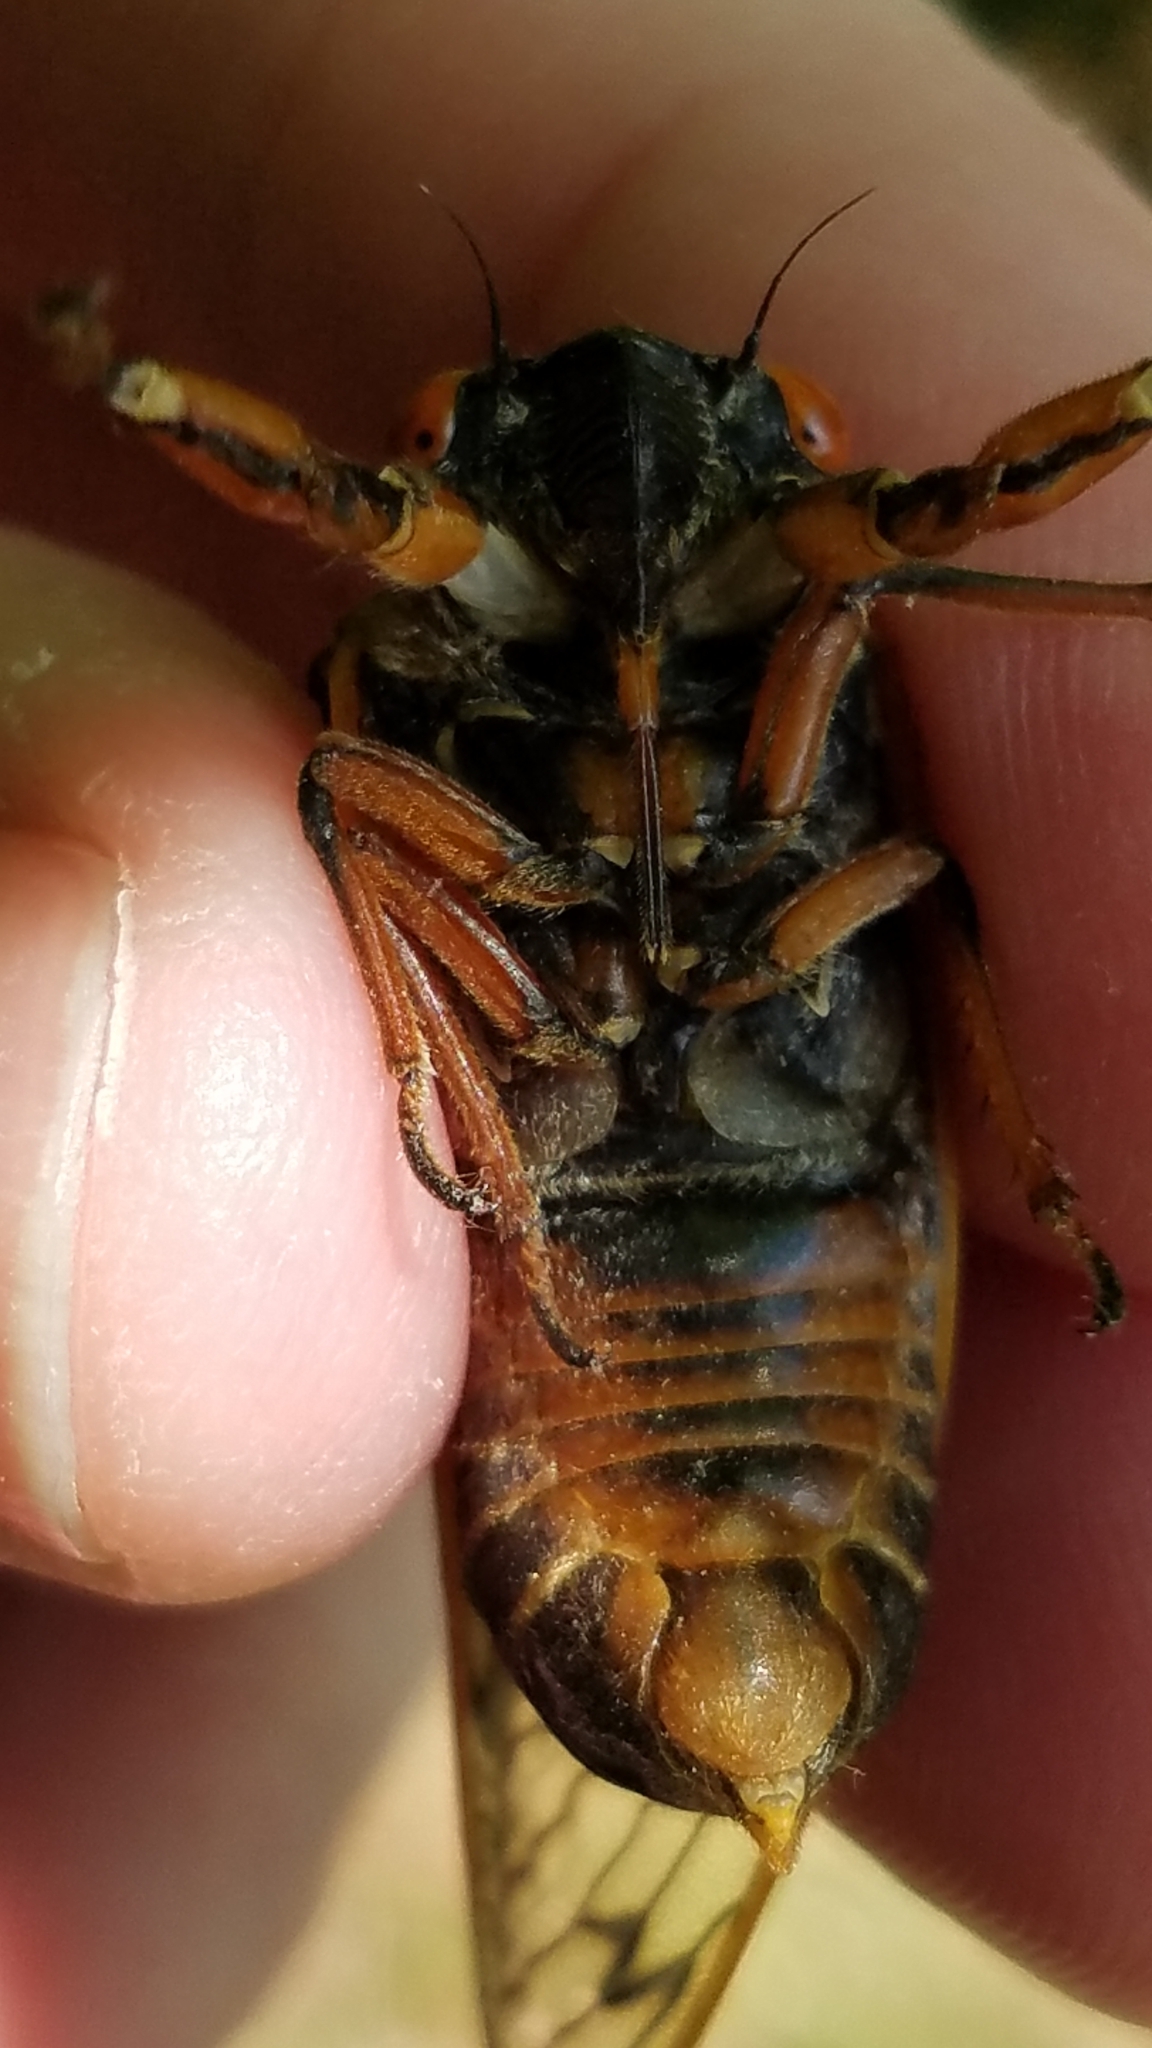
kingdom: Animalia
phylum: Arthropoda
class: Insecta
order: Hemiptera
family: Cicadidae
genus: Magicicada
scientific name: Magicicada septendecim
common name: Periodical cicada
